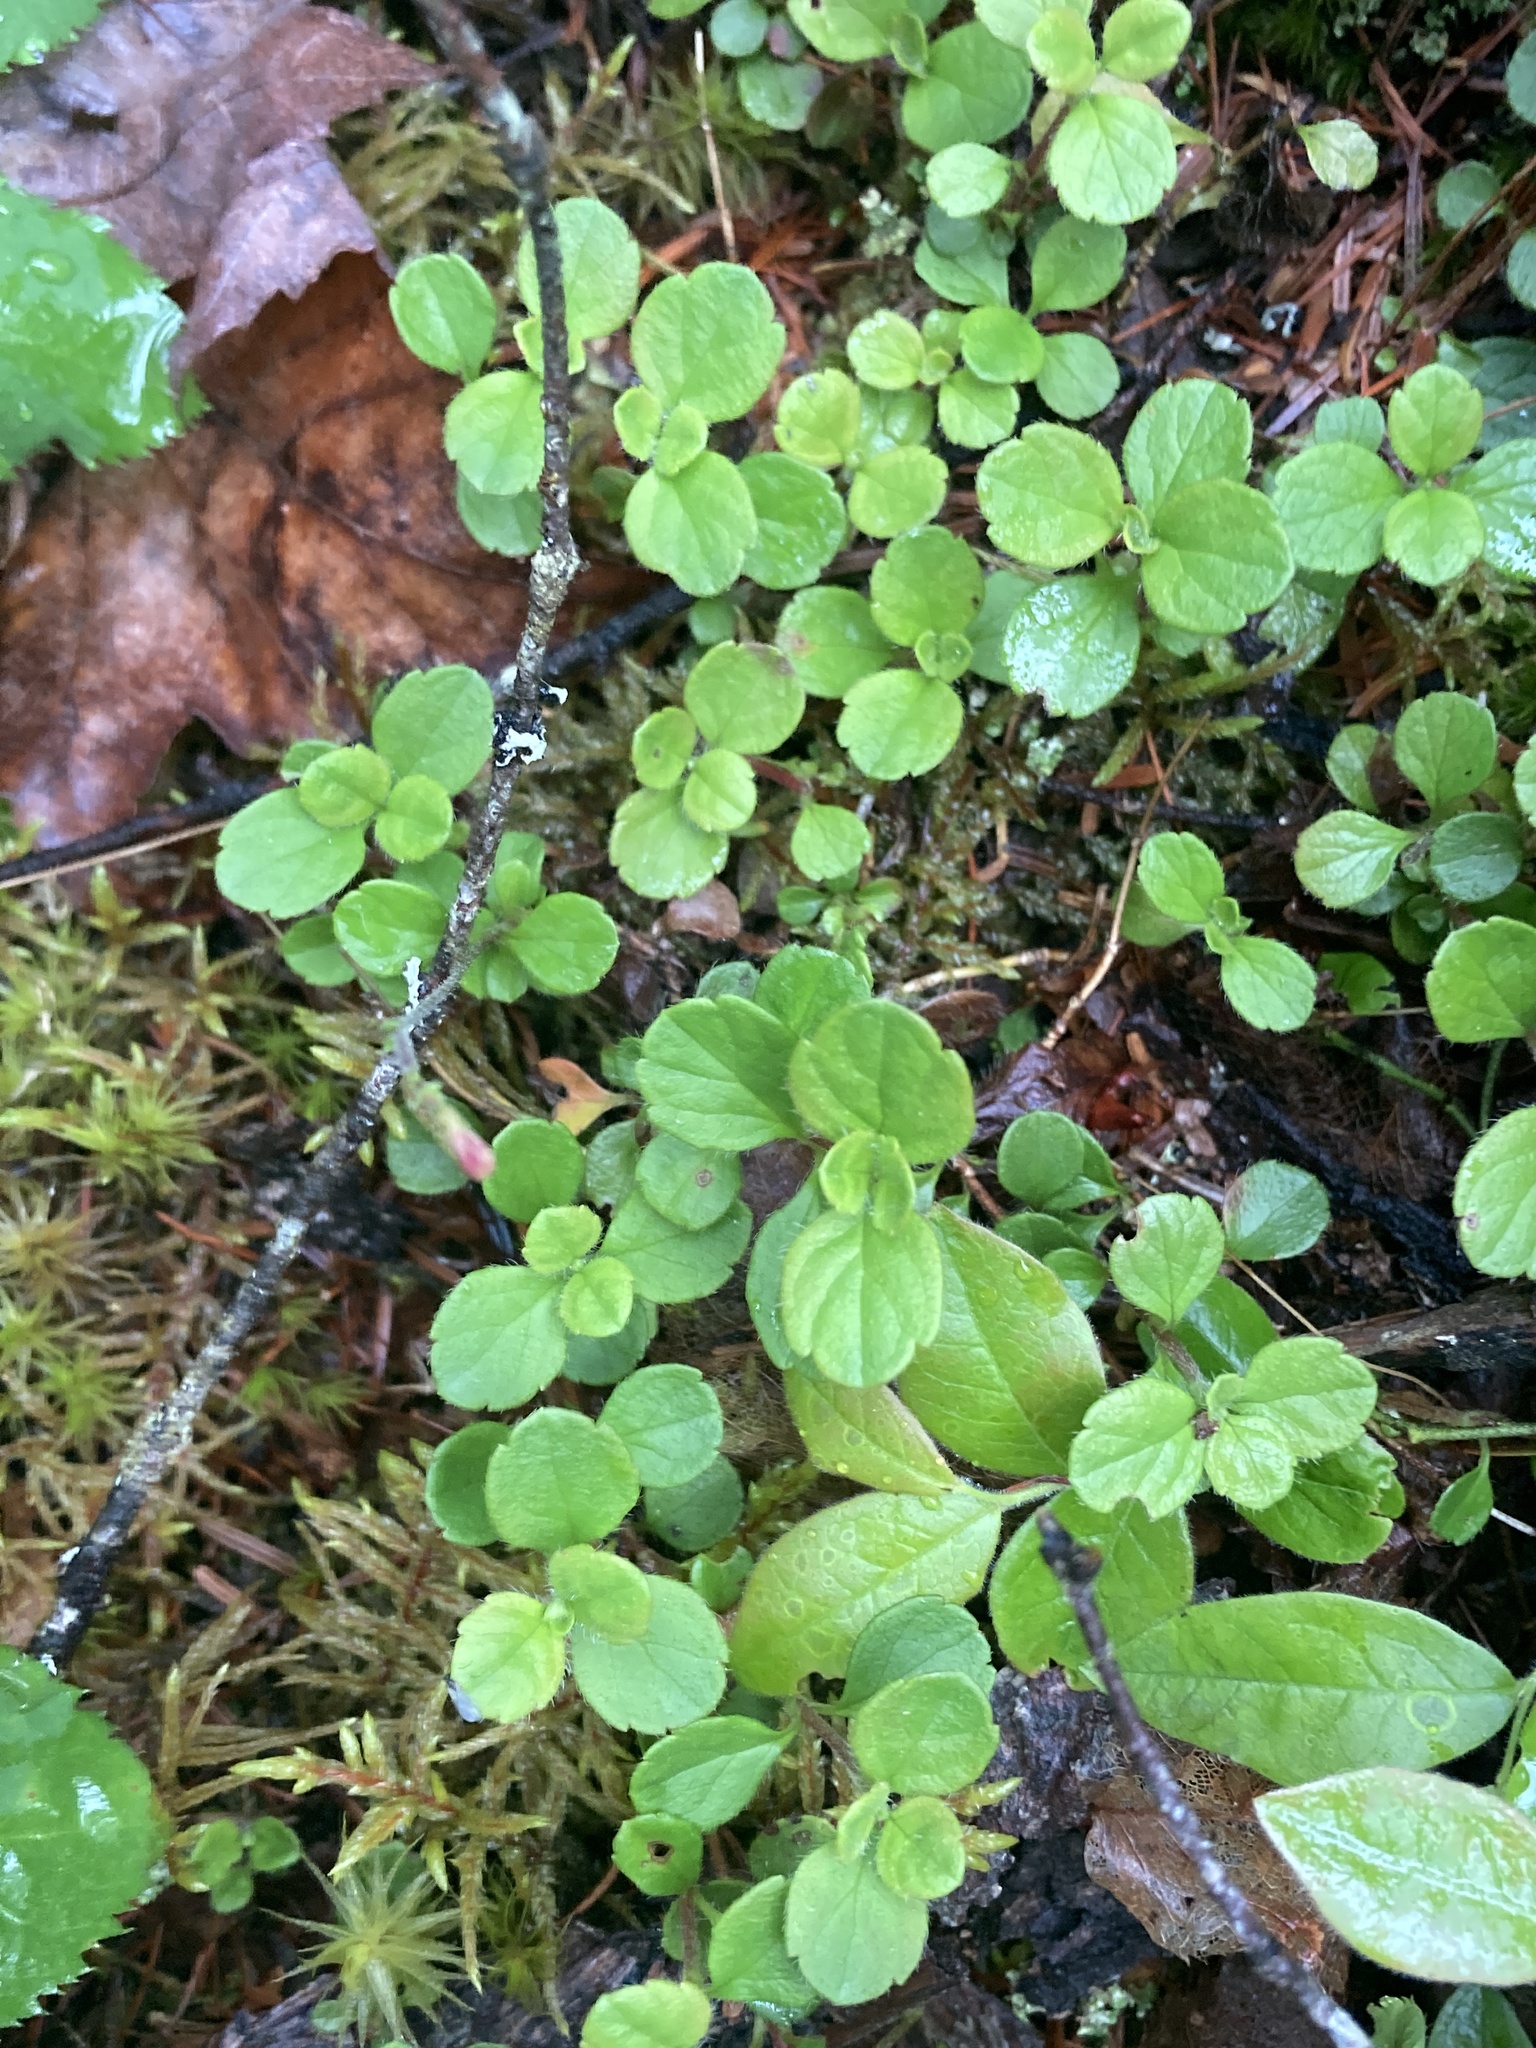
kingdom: Plantae
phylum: Tracheophyta
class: Magnoliopsida
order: Dipsacales
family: Caprifoliaceae
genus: Linnaea
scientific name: Linnaea borealis
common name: Twinflower
